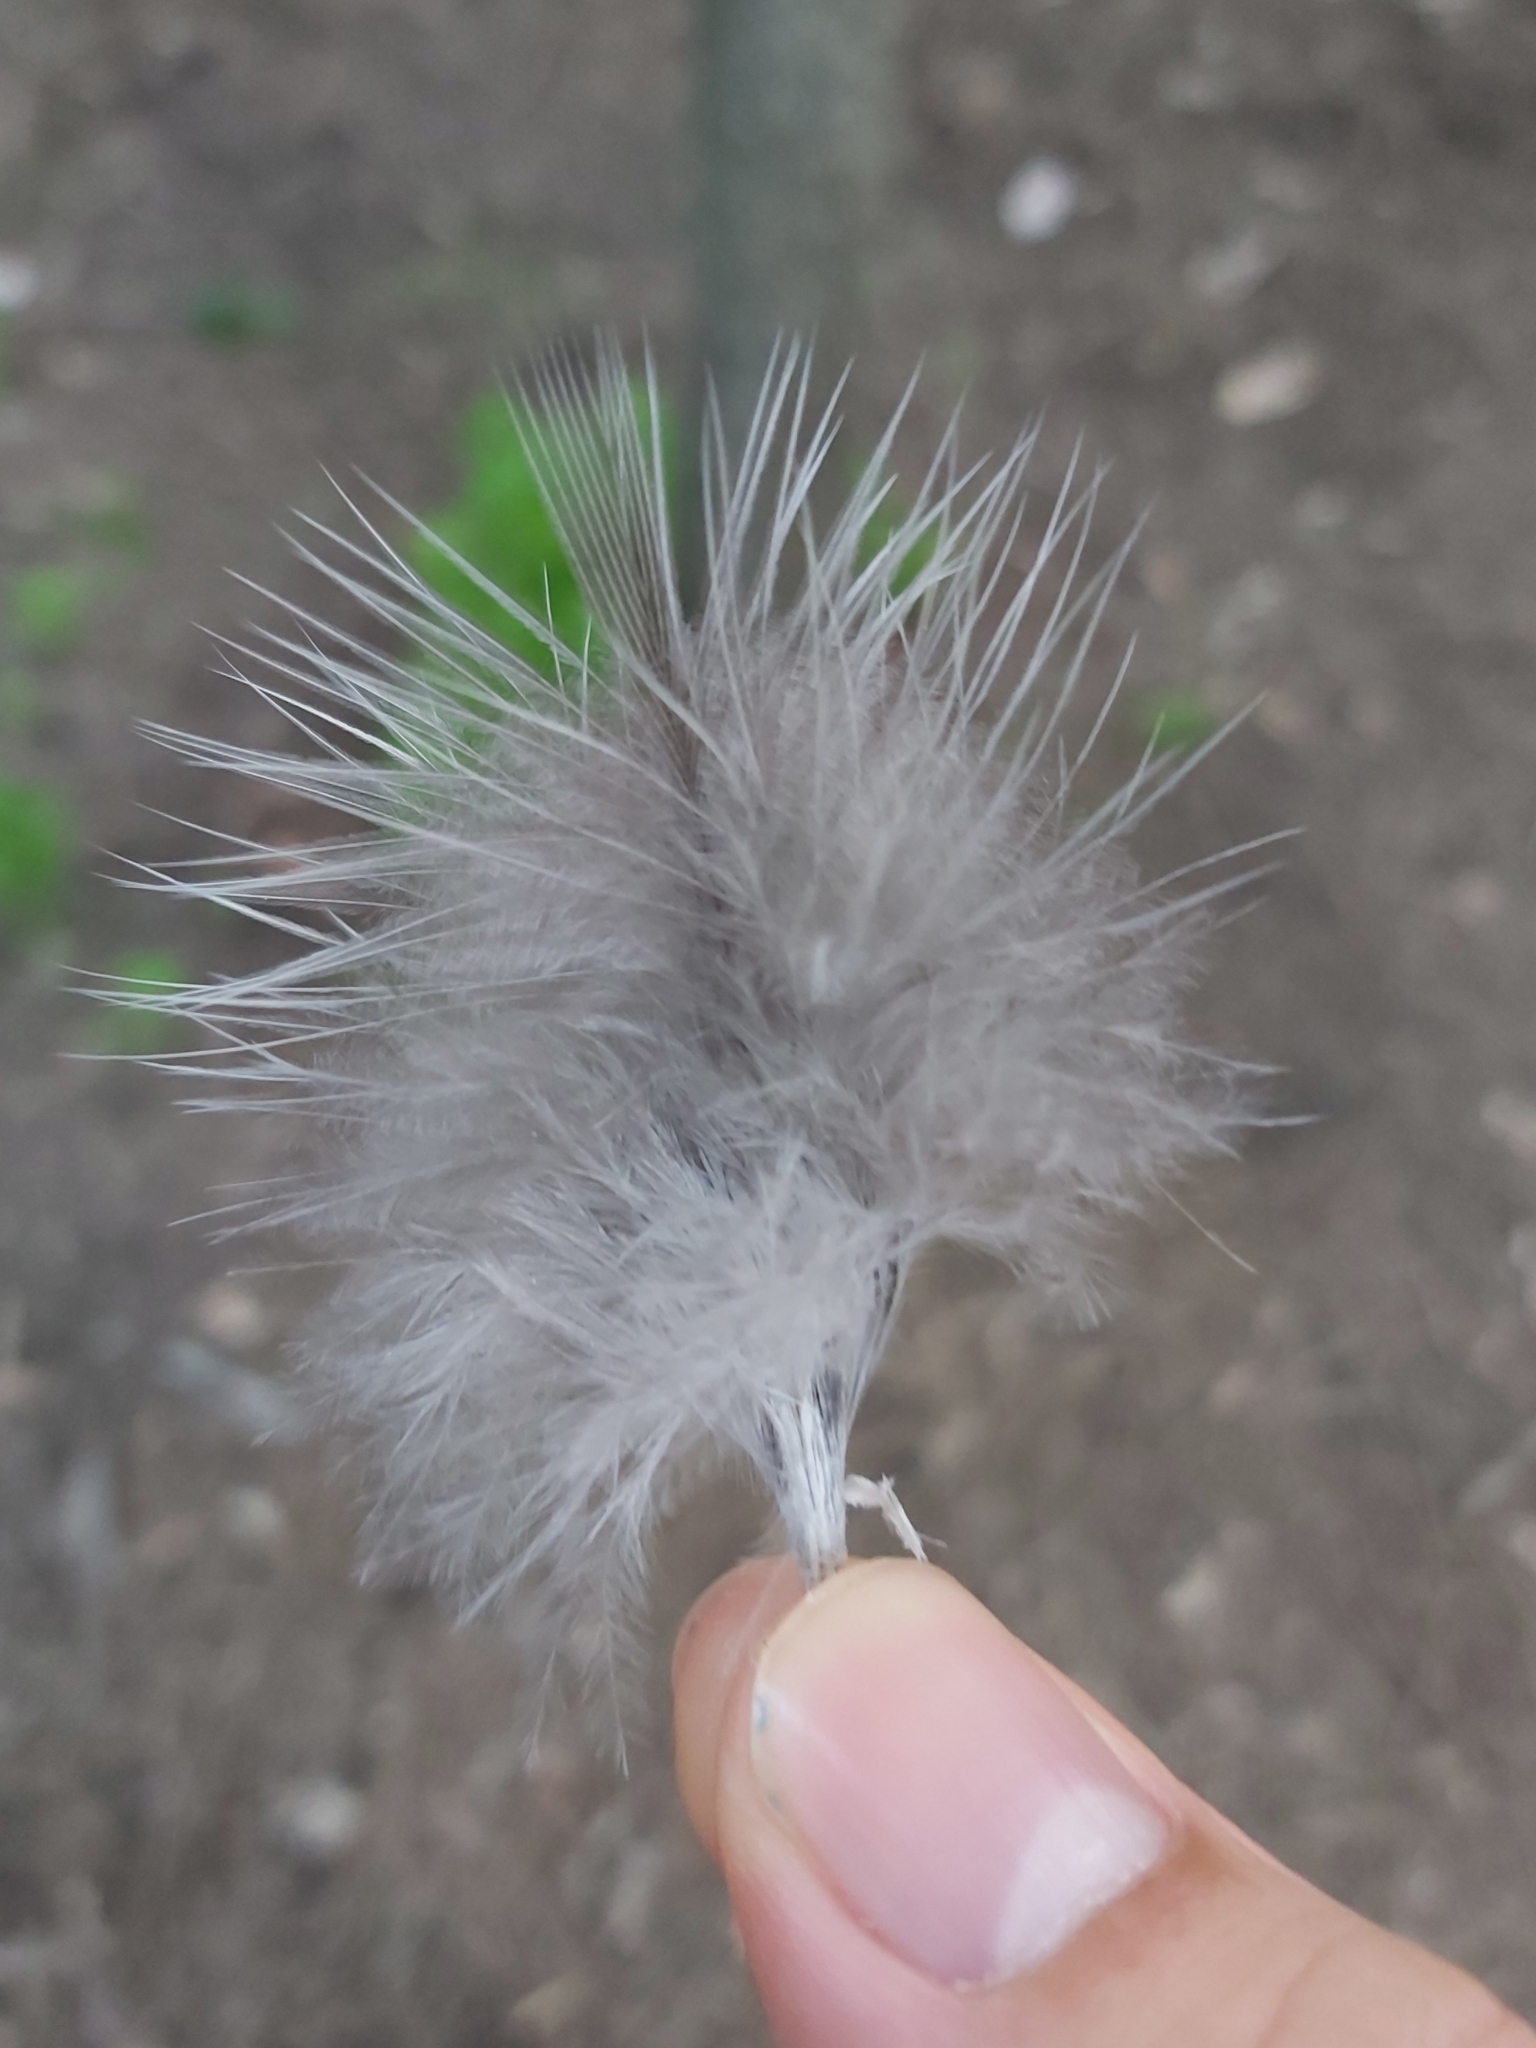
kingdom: Animalia
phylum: Chordata
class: Aves
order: Galliformes
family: Megapodiidae
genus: Alectura
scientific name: Alectura lathami
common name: Australian brushturkey
